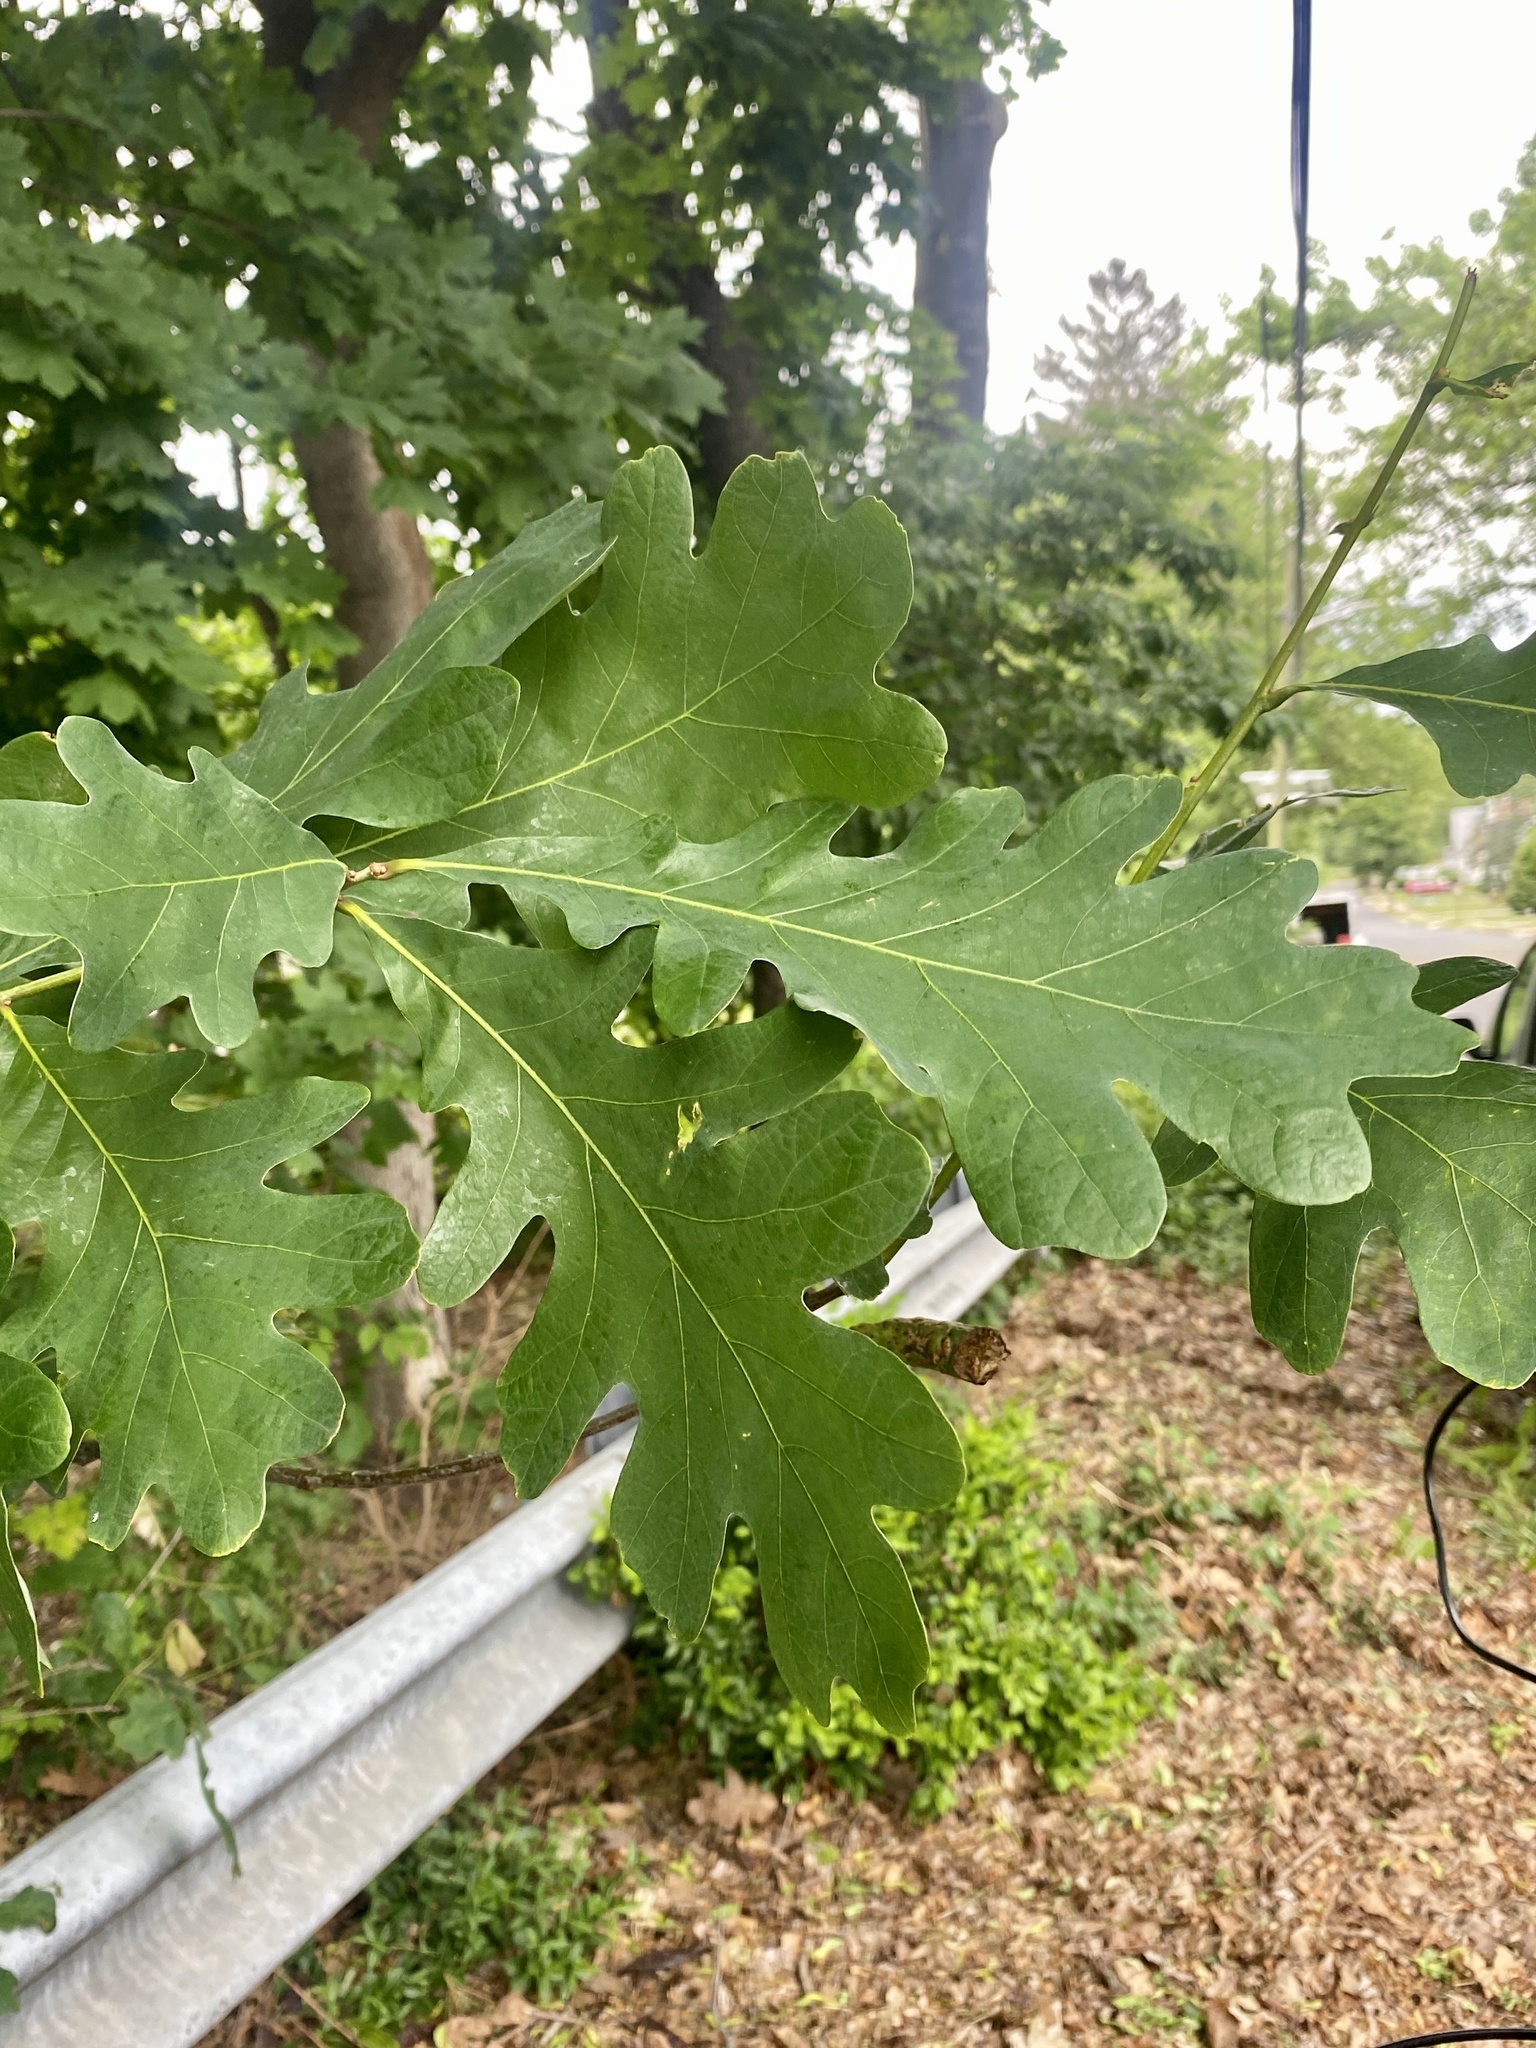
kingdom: Plantae
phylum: Tracheophyta
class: Magnoliopsida
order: Fagales
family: Fagaceae
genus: Quercus
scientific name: Quercus alba
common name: White oak
